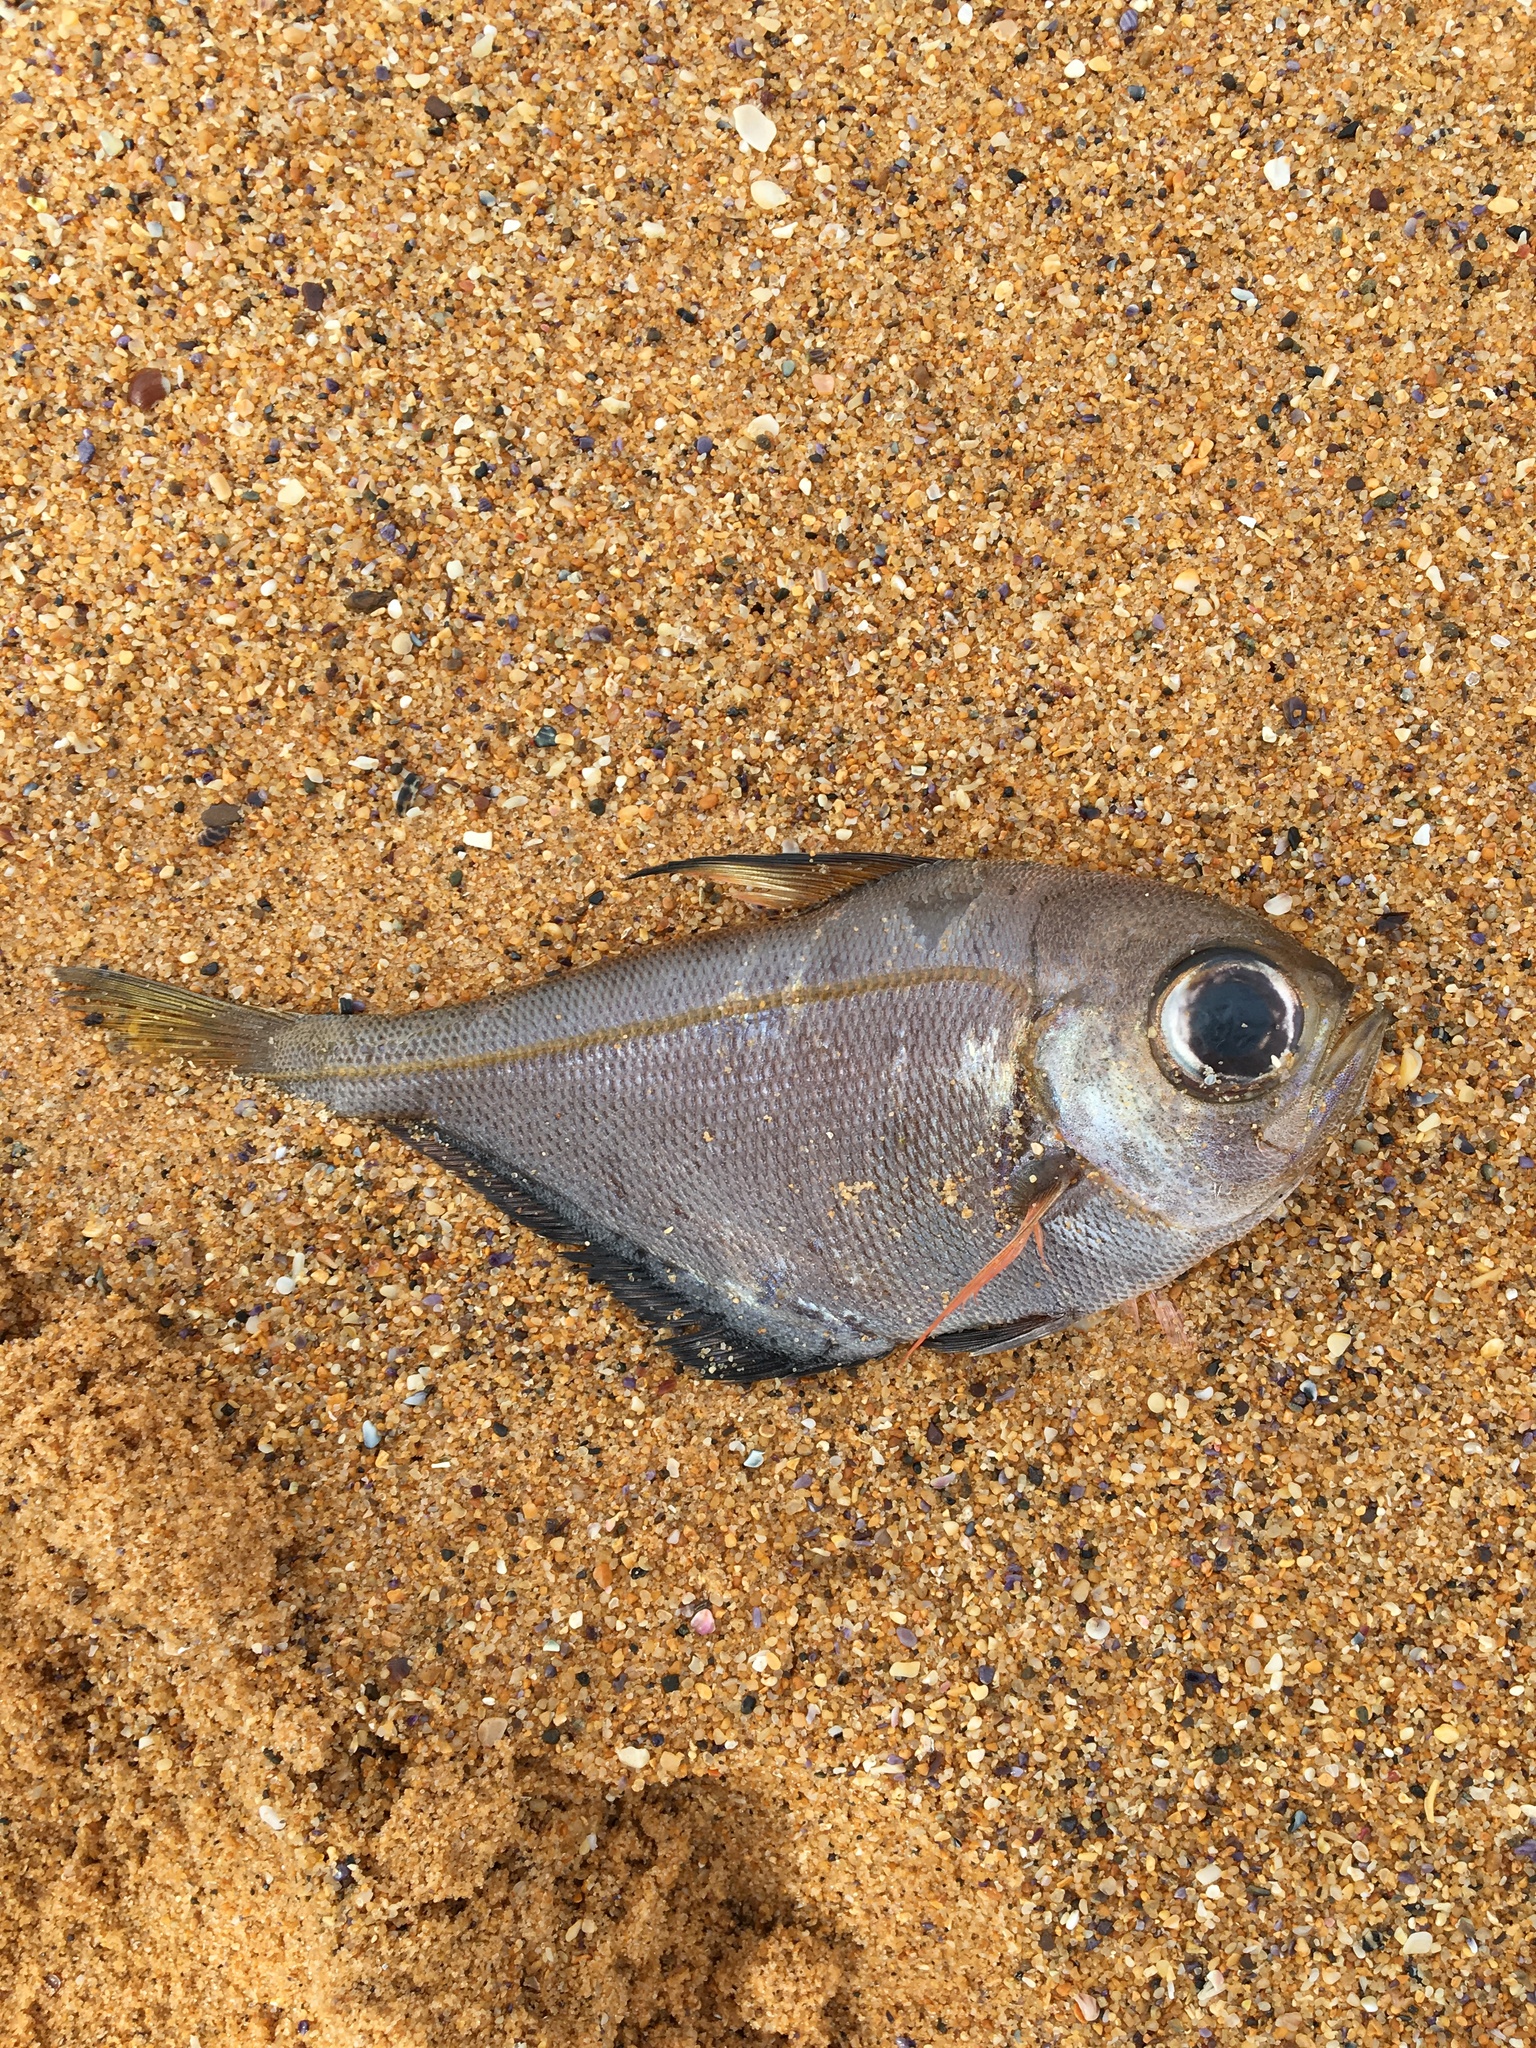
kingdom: Animalia
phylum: Chordata
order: Perciformes
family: Pempheridae
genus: Pempheris
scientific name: Pempheris compressa
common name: Bulleye
